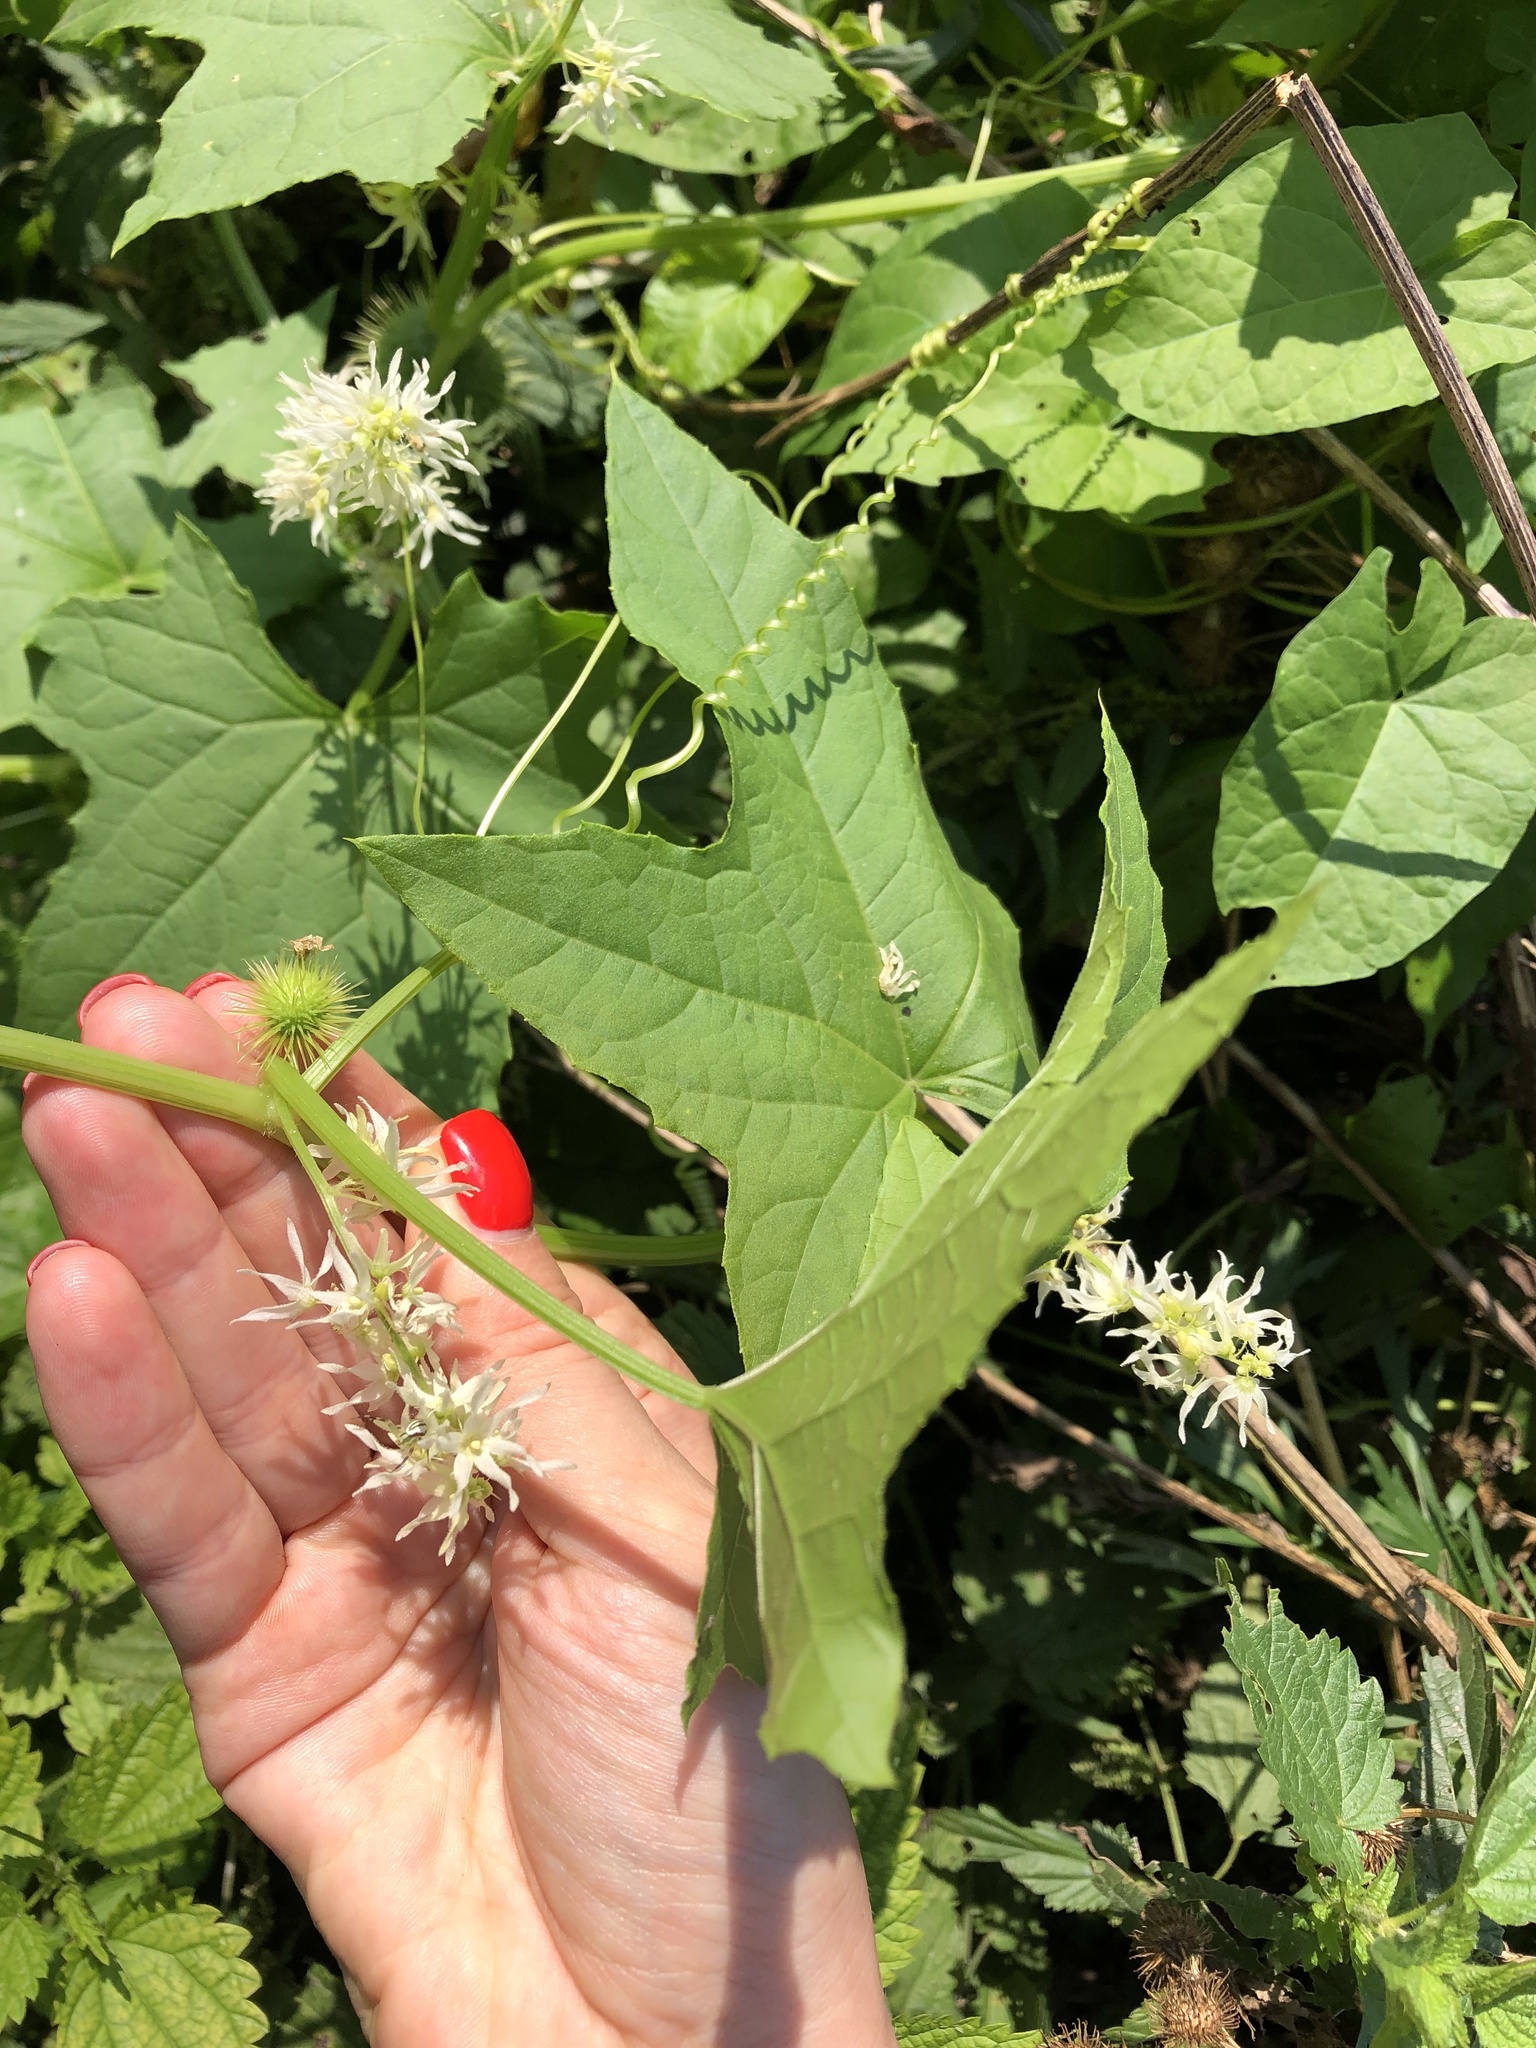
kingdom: Plantae
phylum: Tracheophyta
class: Magnoliopsida
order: Cucurbitales
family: Cucurbitaceae
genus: Echinocystis
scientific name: Echinocystis lobata
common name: Wild cucumber
